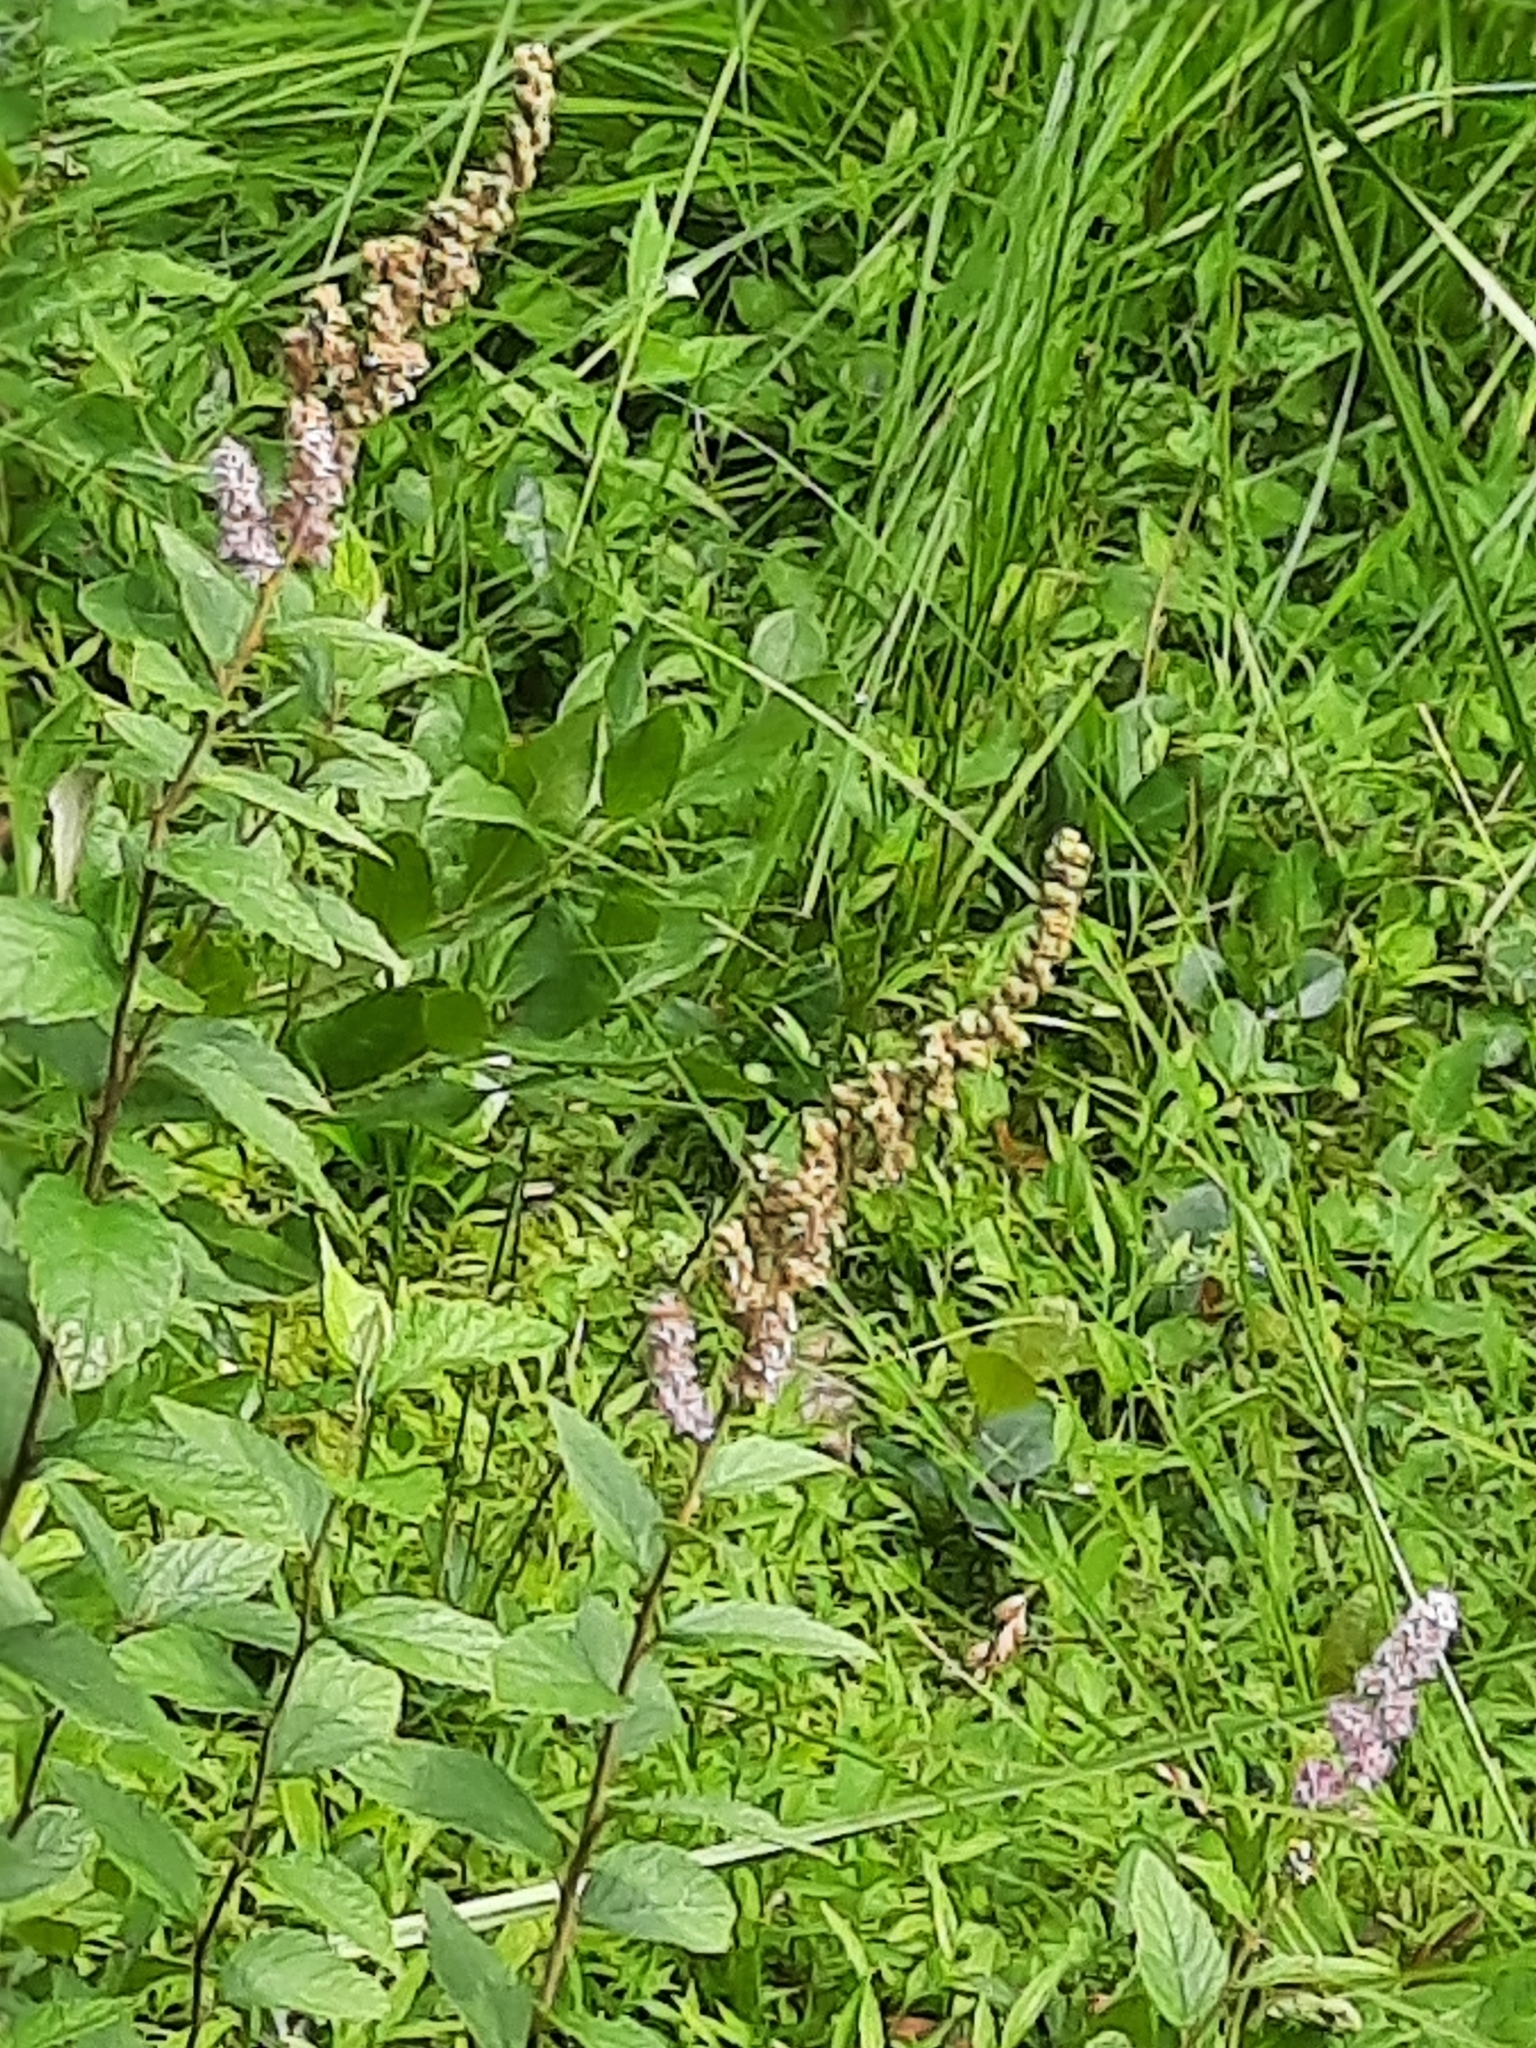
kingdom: Plantae
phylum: Tracheophyta
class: Magnoliopsida
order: Rosales
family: Rosaceae
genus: Spiraea
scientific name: Spiraea tomentosa
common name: Hardhack
